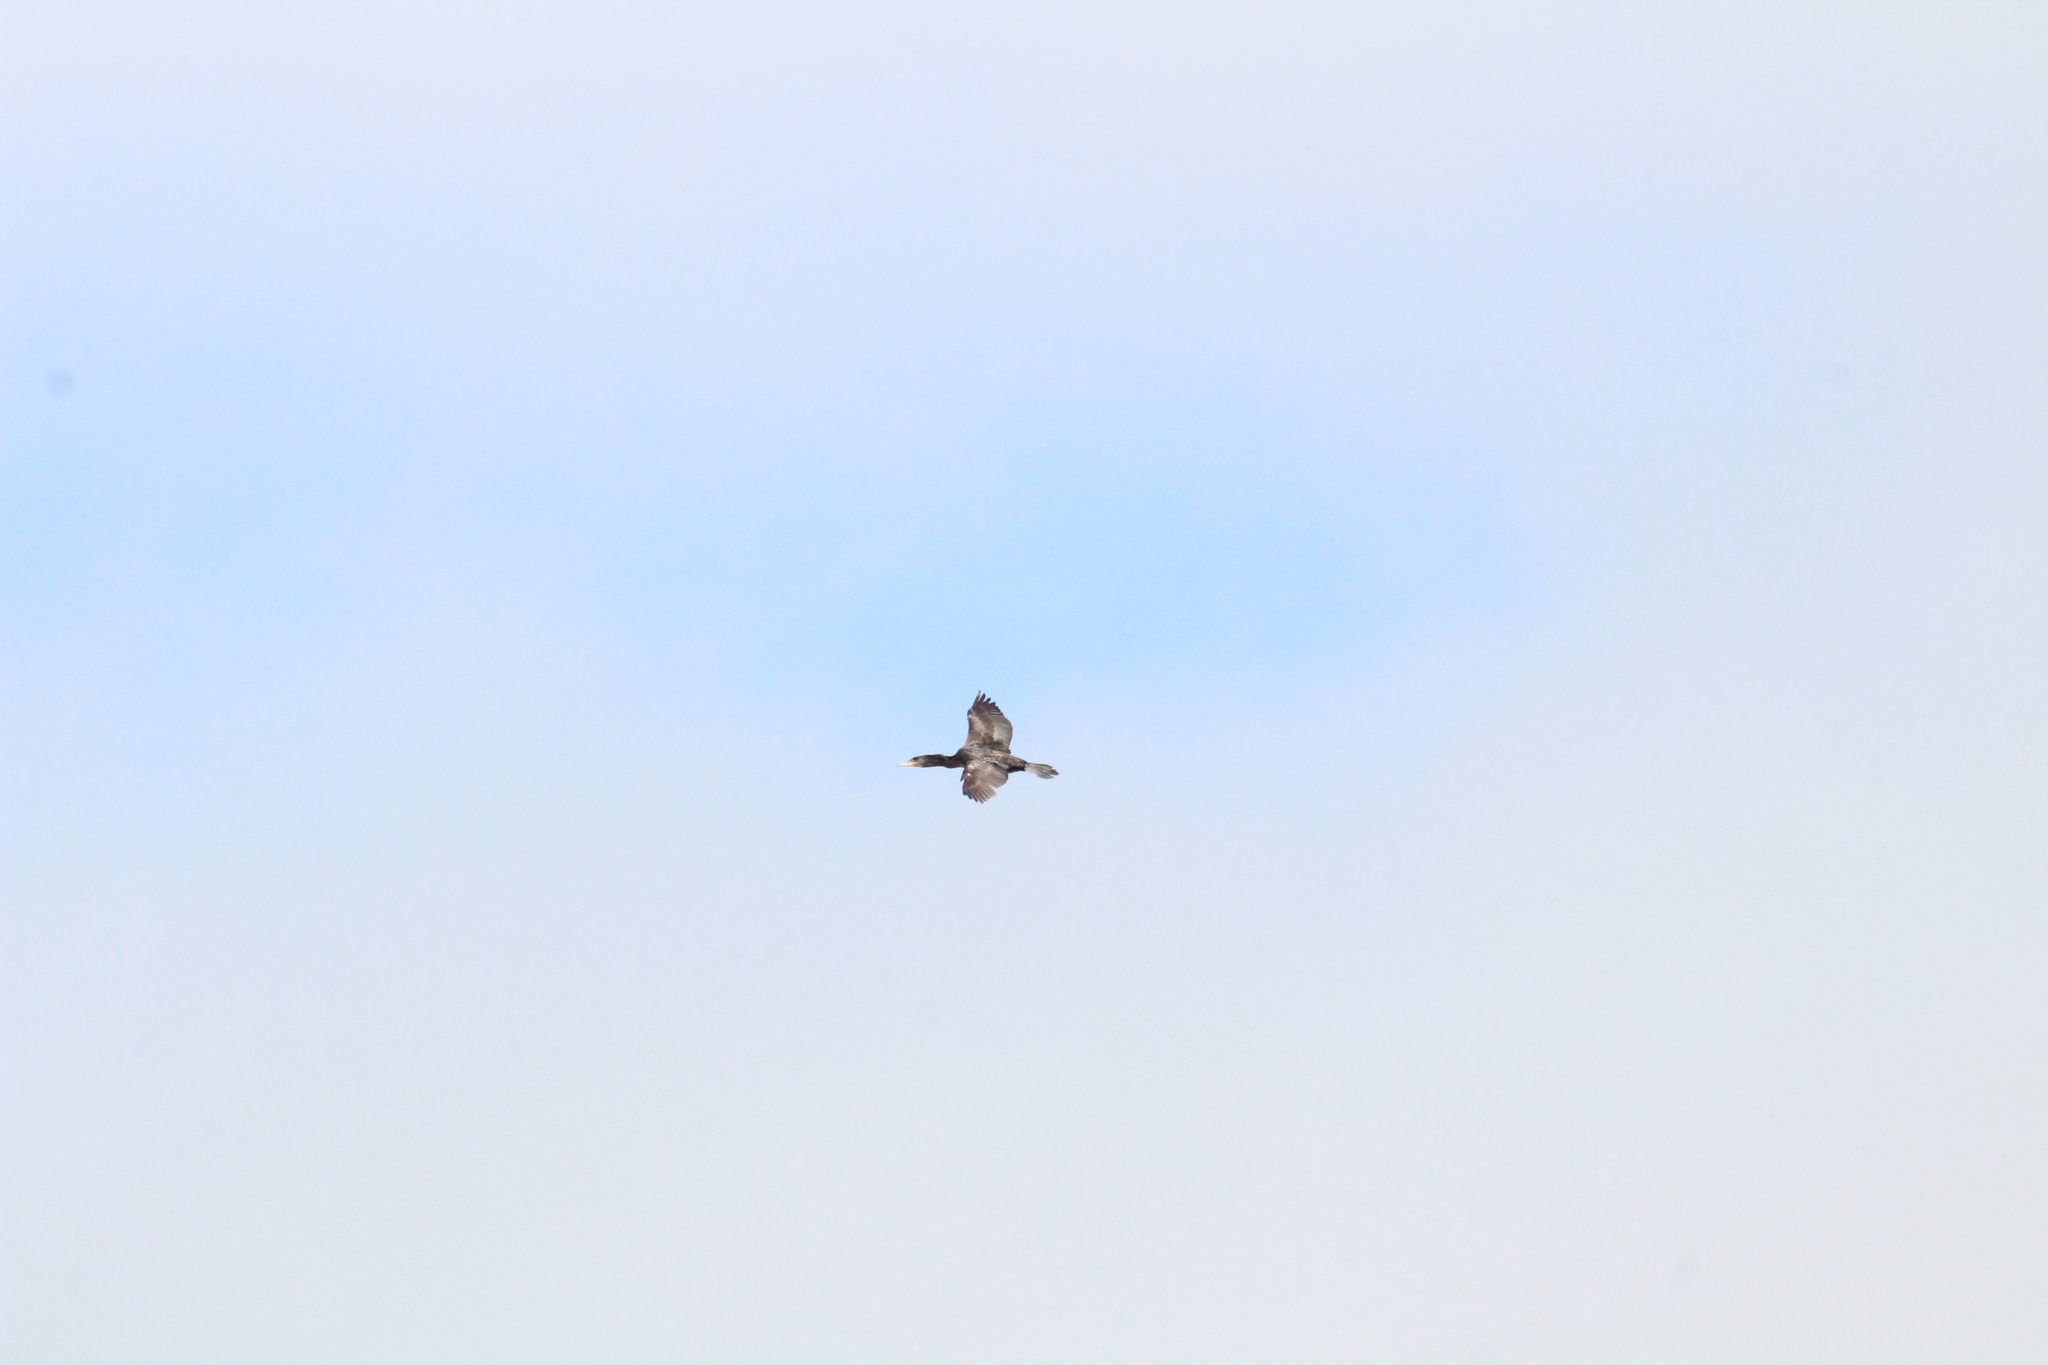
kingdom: Animalia
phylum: Chordata
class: Aves
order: Suliformes
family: Phalacrocoracidae
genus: Phalacrocorax
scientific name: Phalacrocorax carbo
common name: Great cormorant
